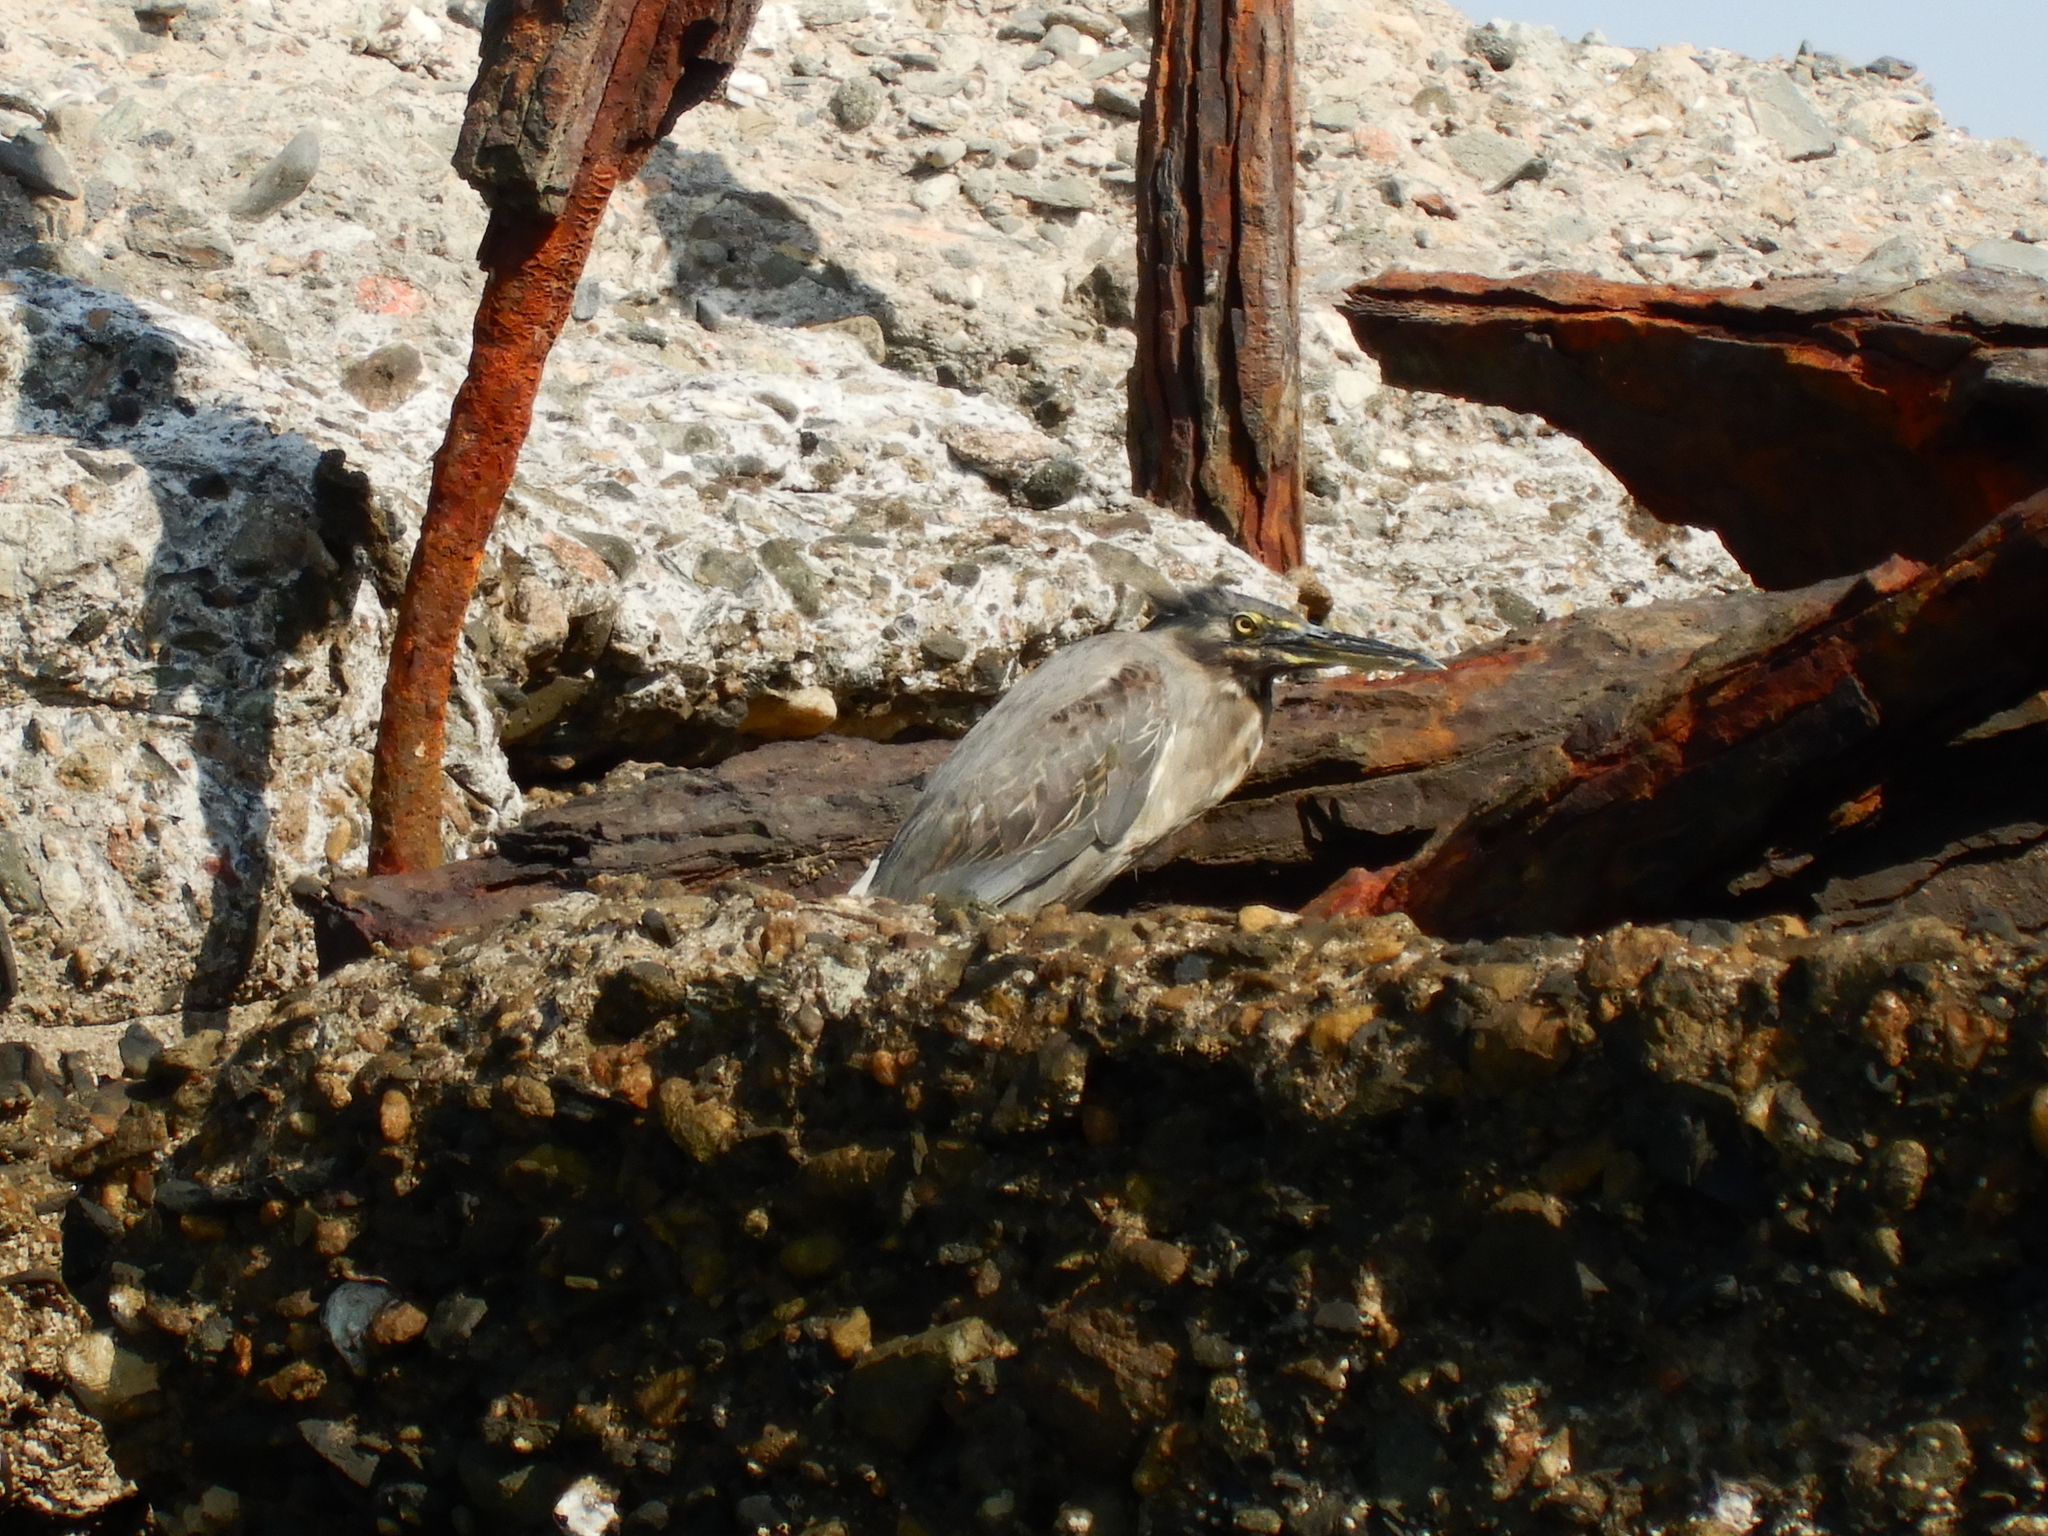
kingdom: Animalia
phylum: Chordata
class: Aves
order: Pelecaniformes
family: Ardeidae
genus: Butorides
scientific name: Butorides striata
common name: Striated heron
